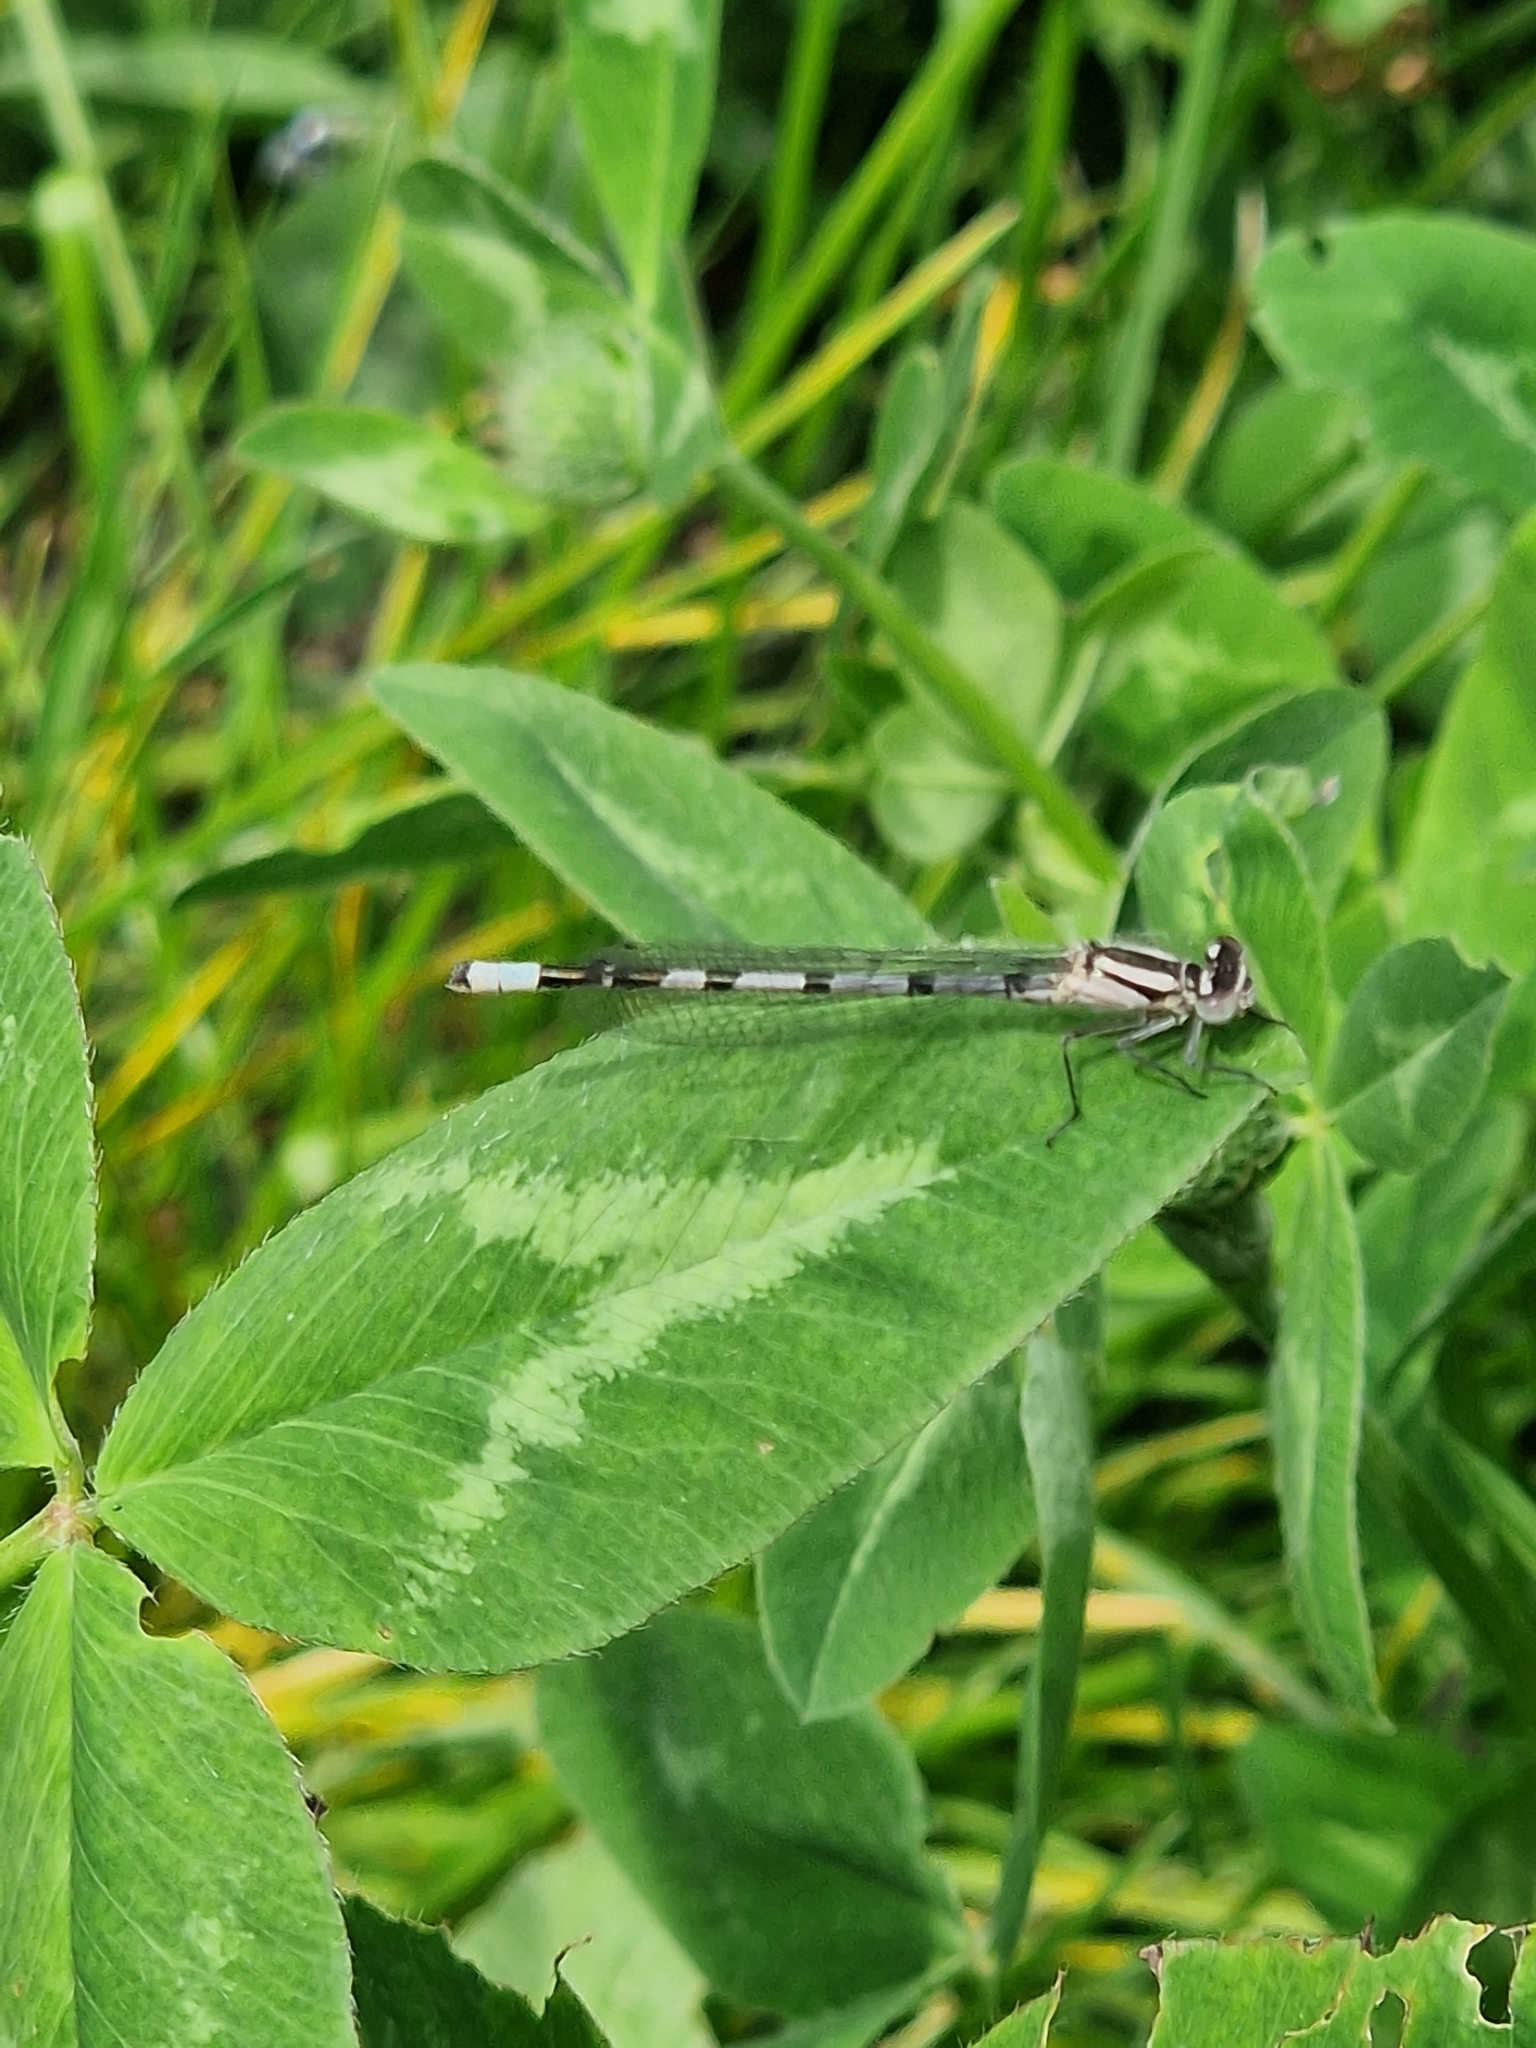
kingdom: Animalia
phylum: Arthropoda
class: Insecta
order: Odonata
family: Coenagrionidae
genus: Enallagma
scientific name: Enallagma cyathigerum
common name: Common blue damselfly
